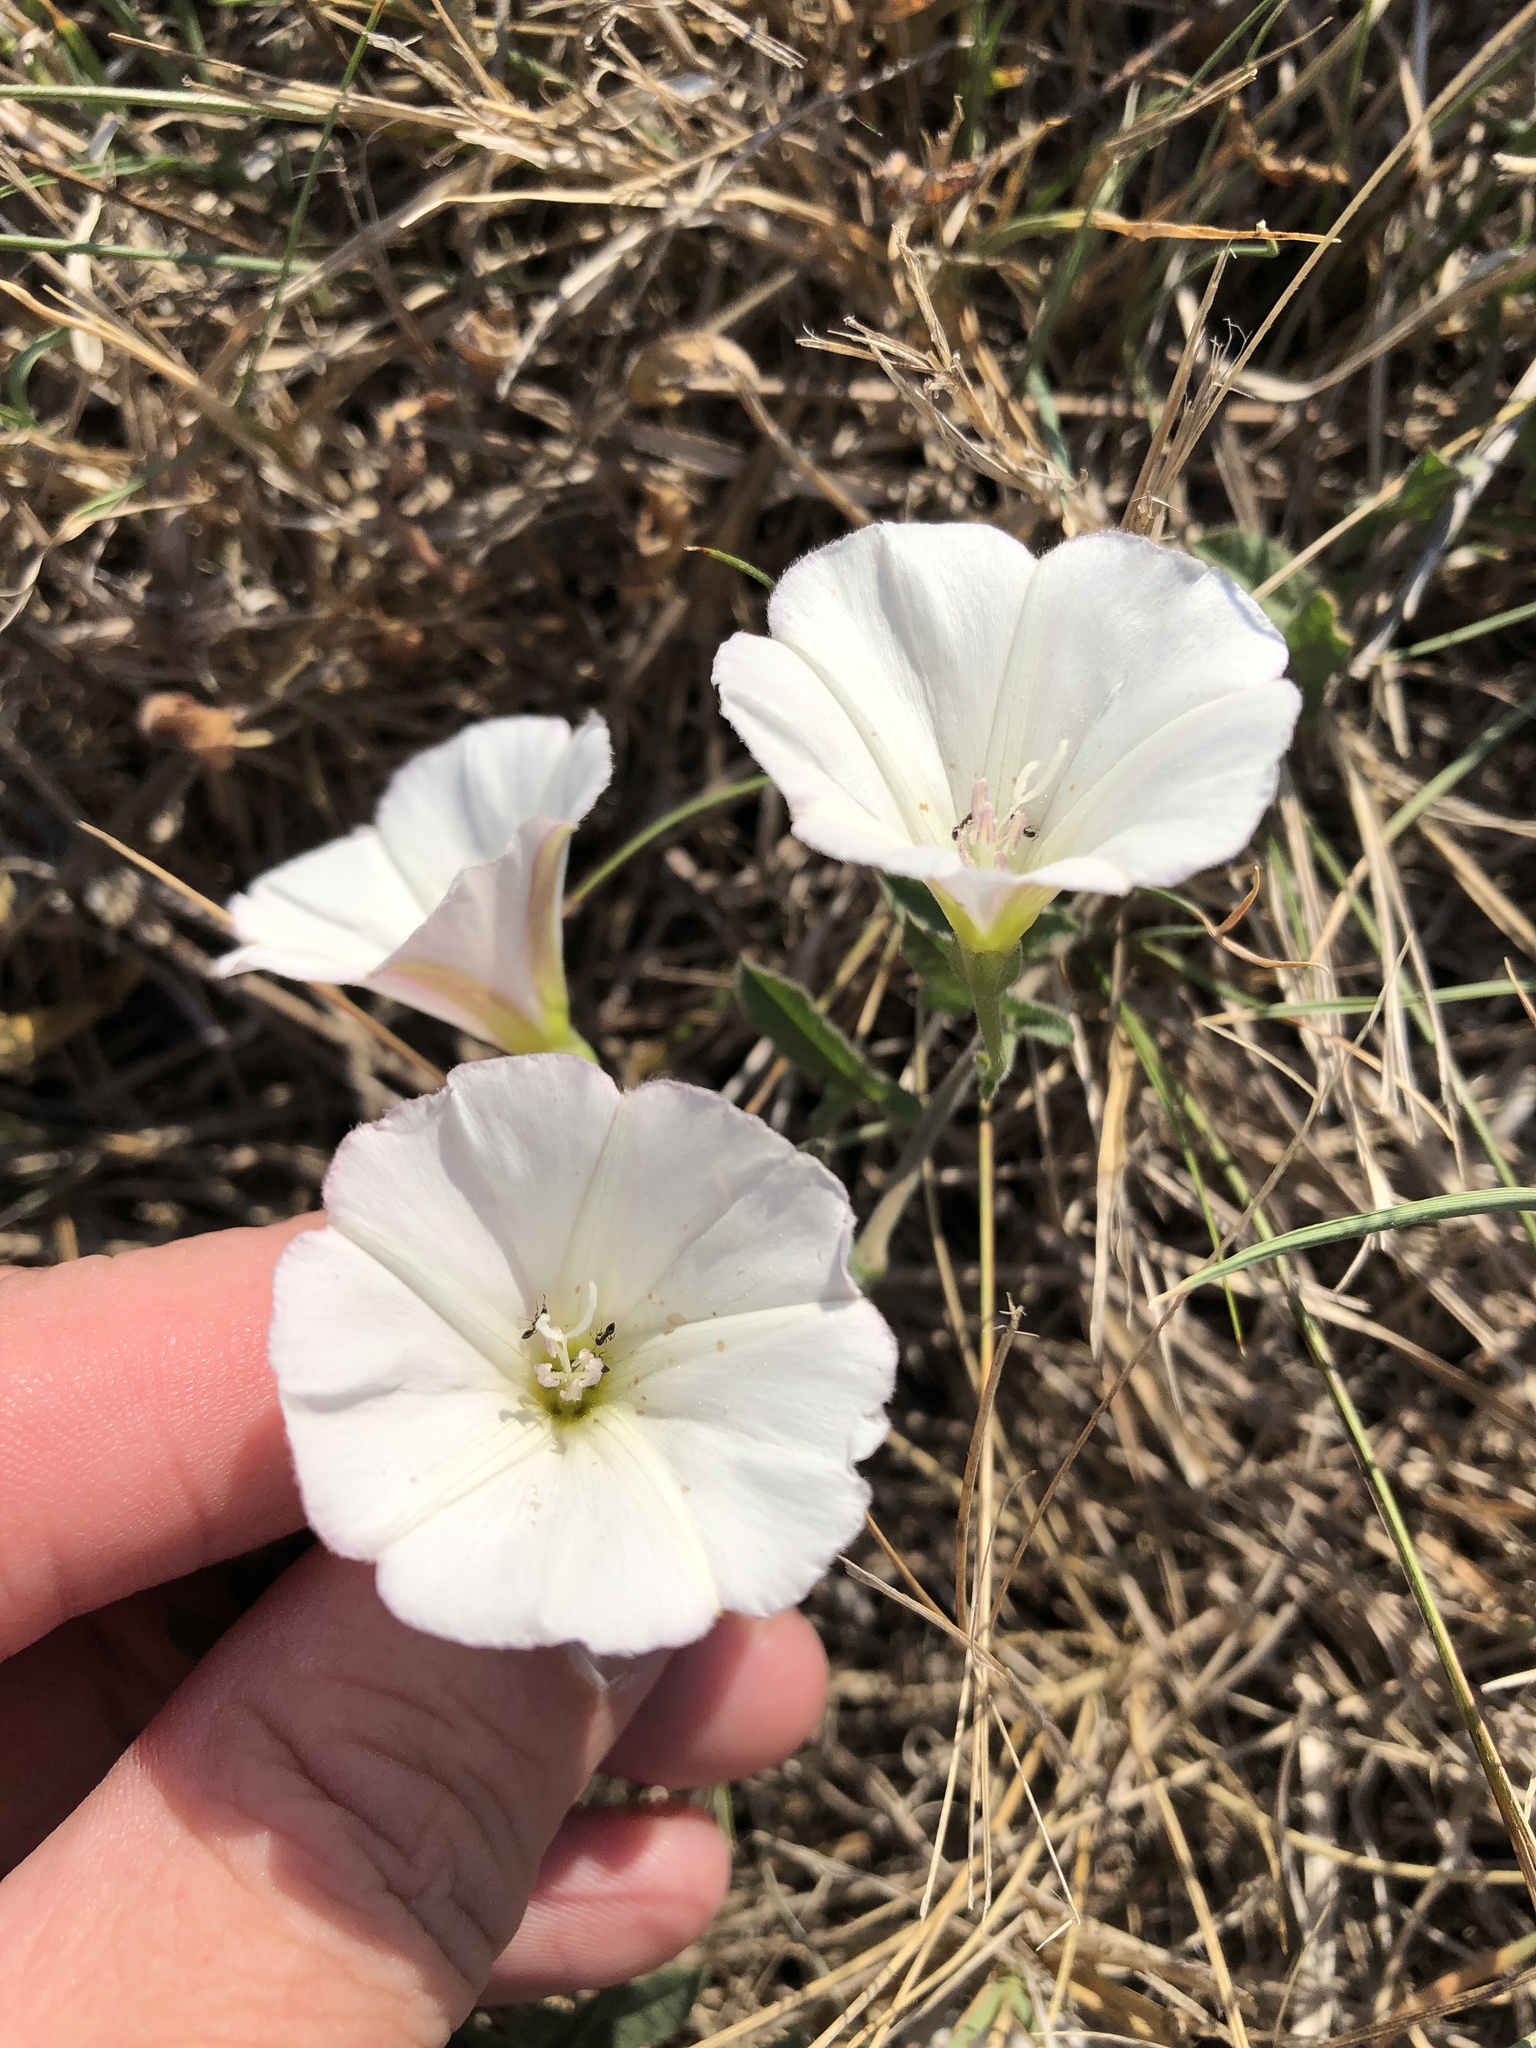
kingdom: Plantae
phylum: Tracheophyta
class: Magnoliopsida
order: Solanales
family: Convolvulaceae
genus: Convolvulus
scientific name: Convolvulus arvensis
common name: Field bindweed
